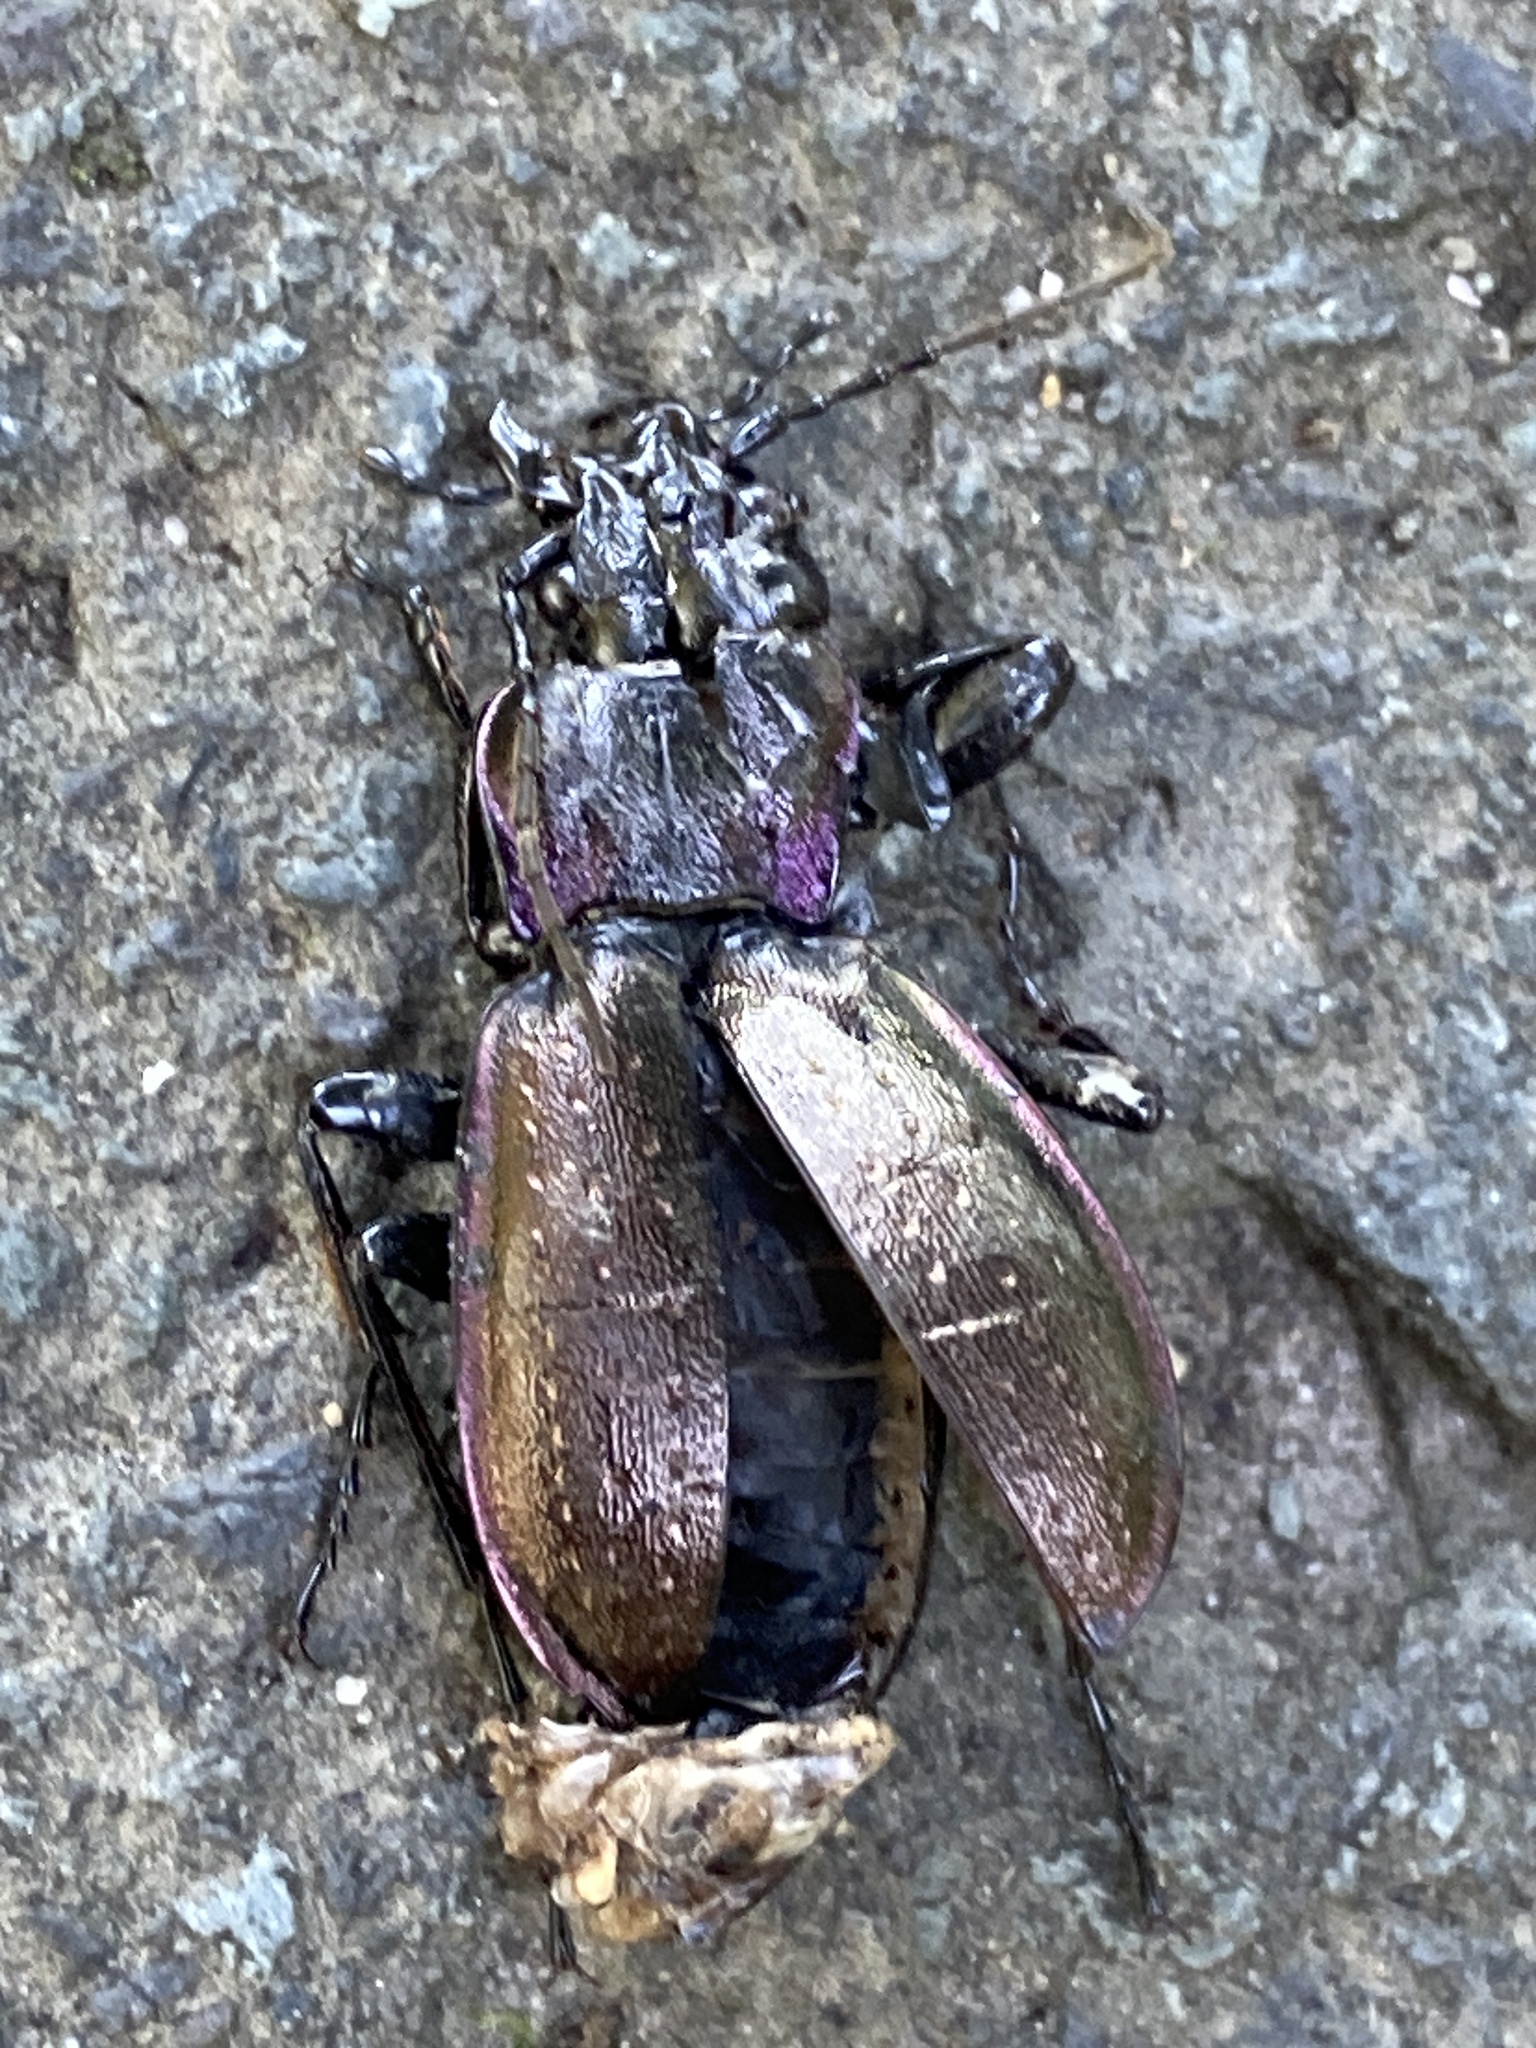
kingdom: Animalia
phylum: Arthropoda
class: Insecta
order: Coleoptera
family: Carabidae
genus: Carabus
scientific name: Carabus nemoralis
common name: European ground beetle
